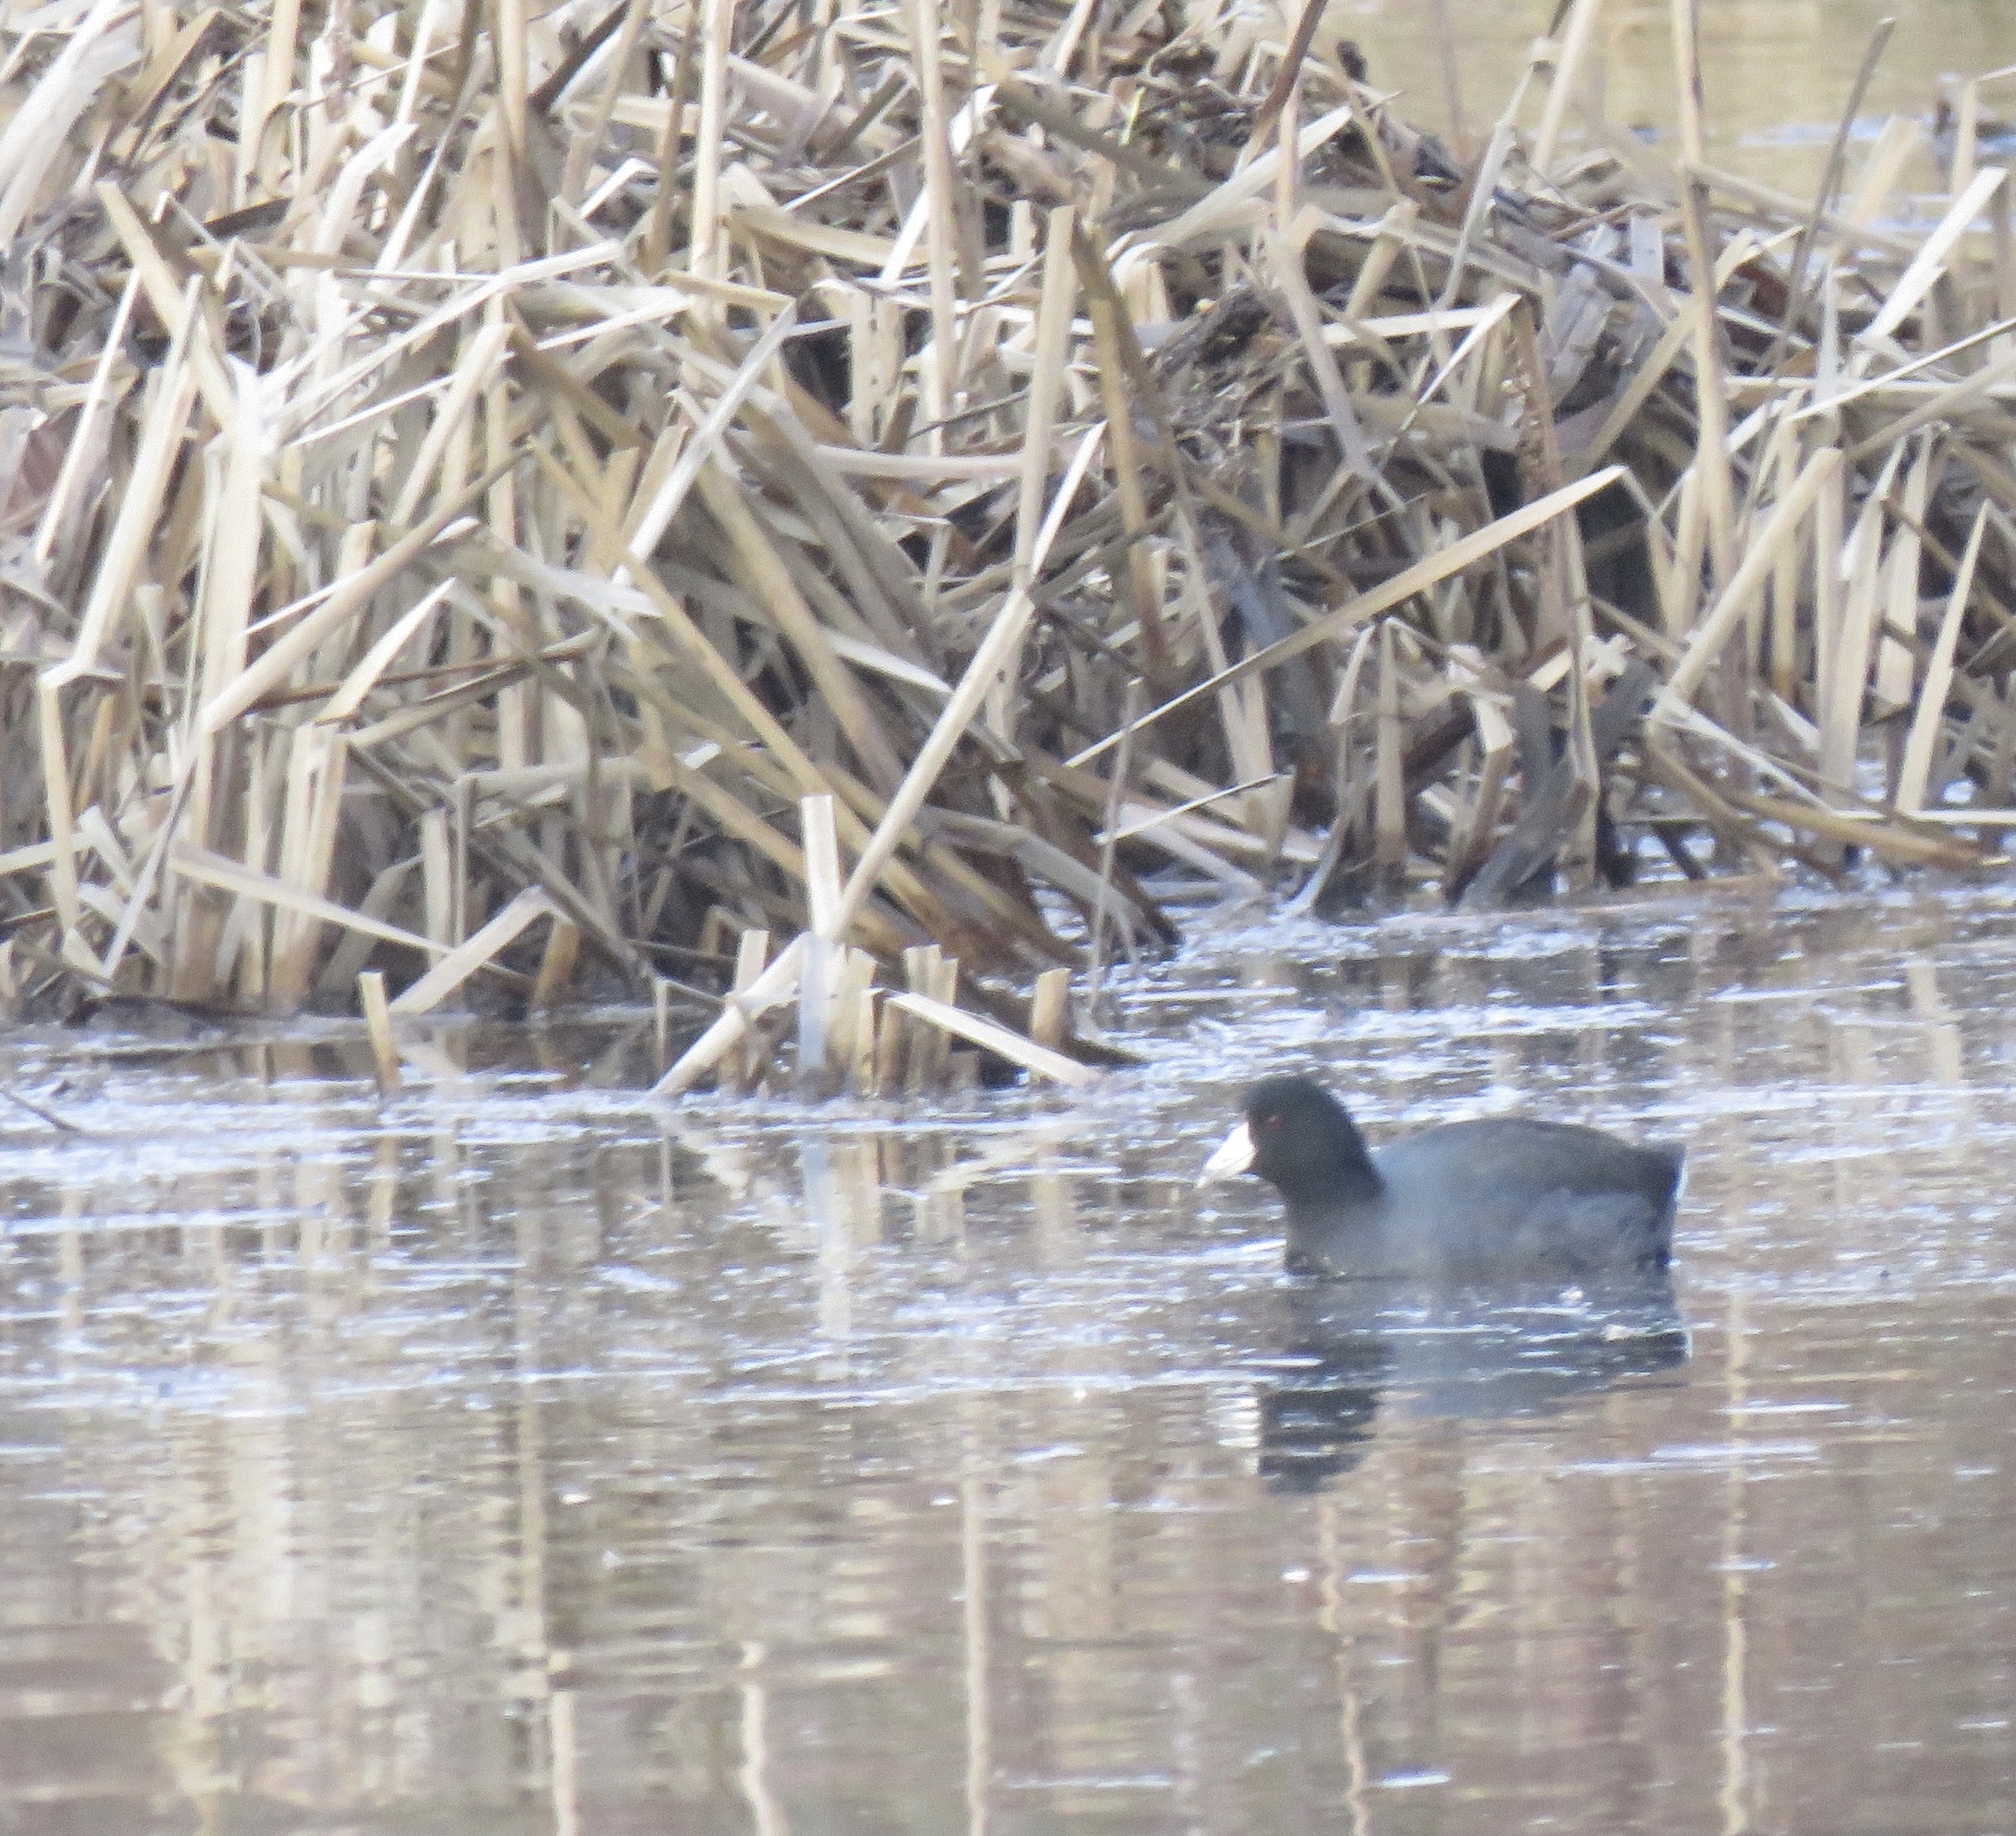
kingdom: Animalia
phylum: Chordata
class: Aves
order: Gruiformes
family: Rallidae
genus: Fulica
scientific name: Fulica americana
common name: American coot
